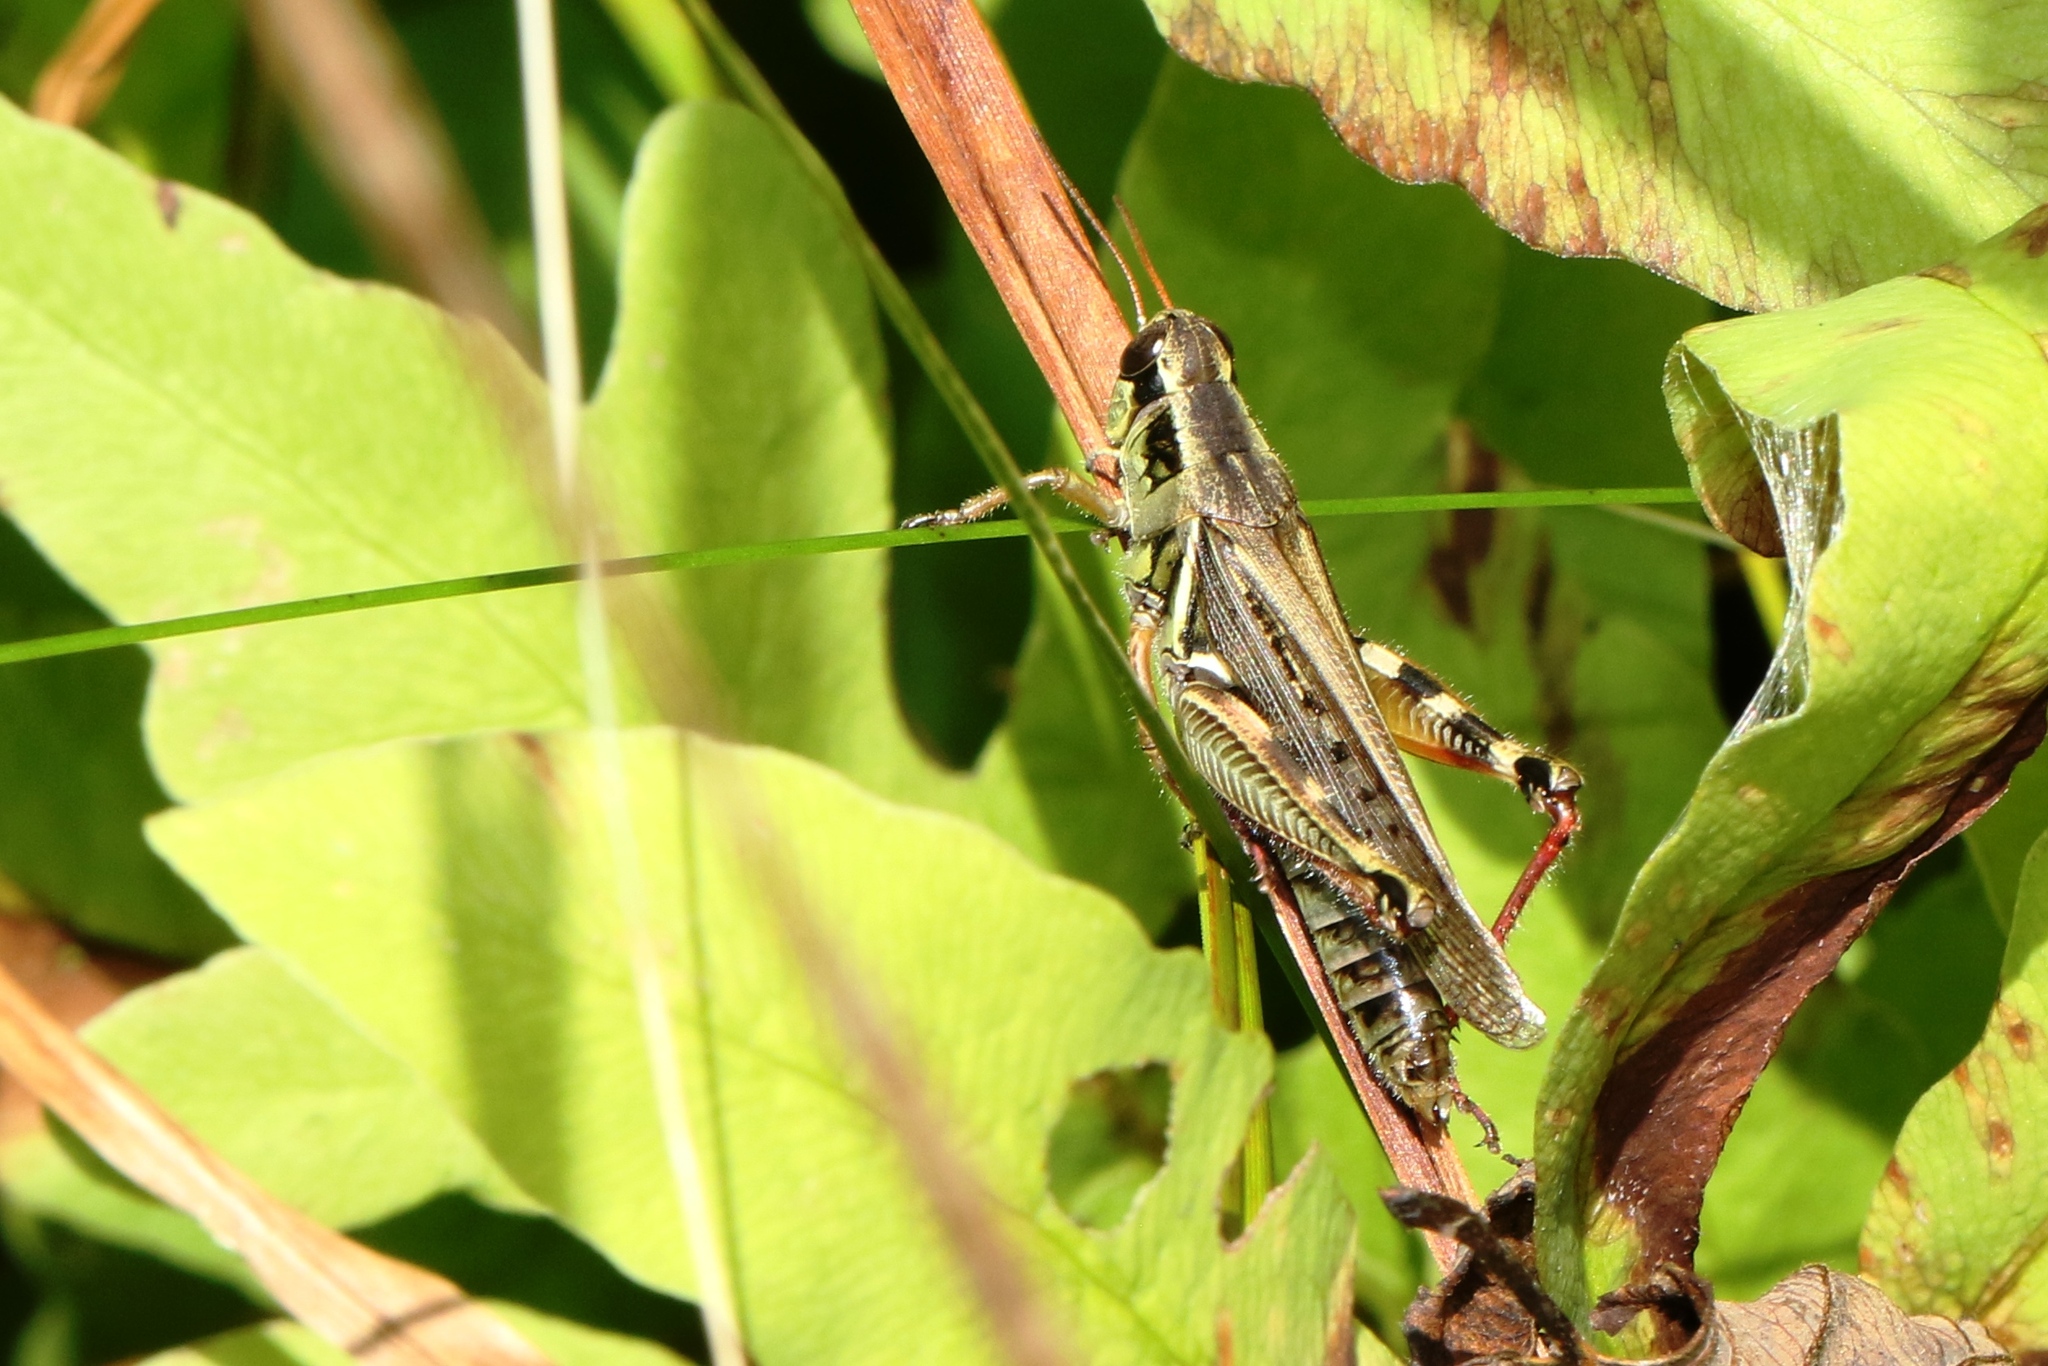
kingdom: Animalia
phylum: Arthropoda
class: Insecta
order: Orthoptera
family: Acrididae
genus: Melanoplus
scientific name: Melanoplus femurrubrum
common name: Red-legged grasshopper
